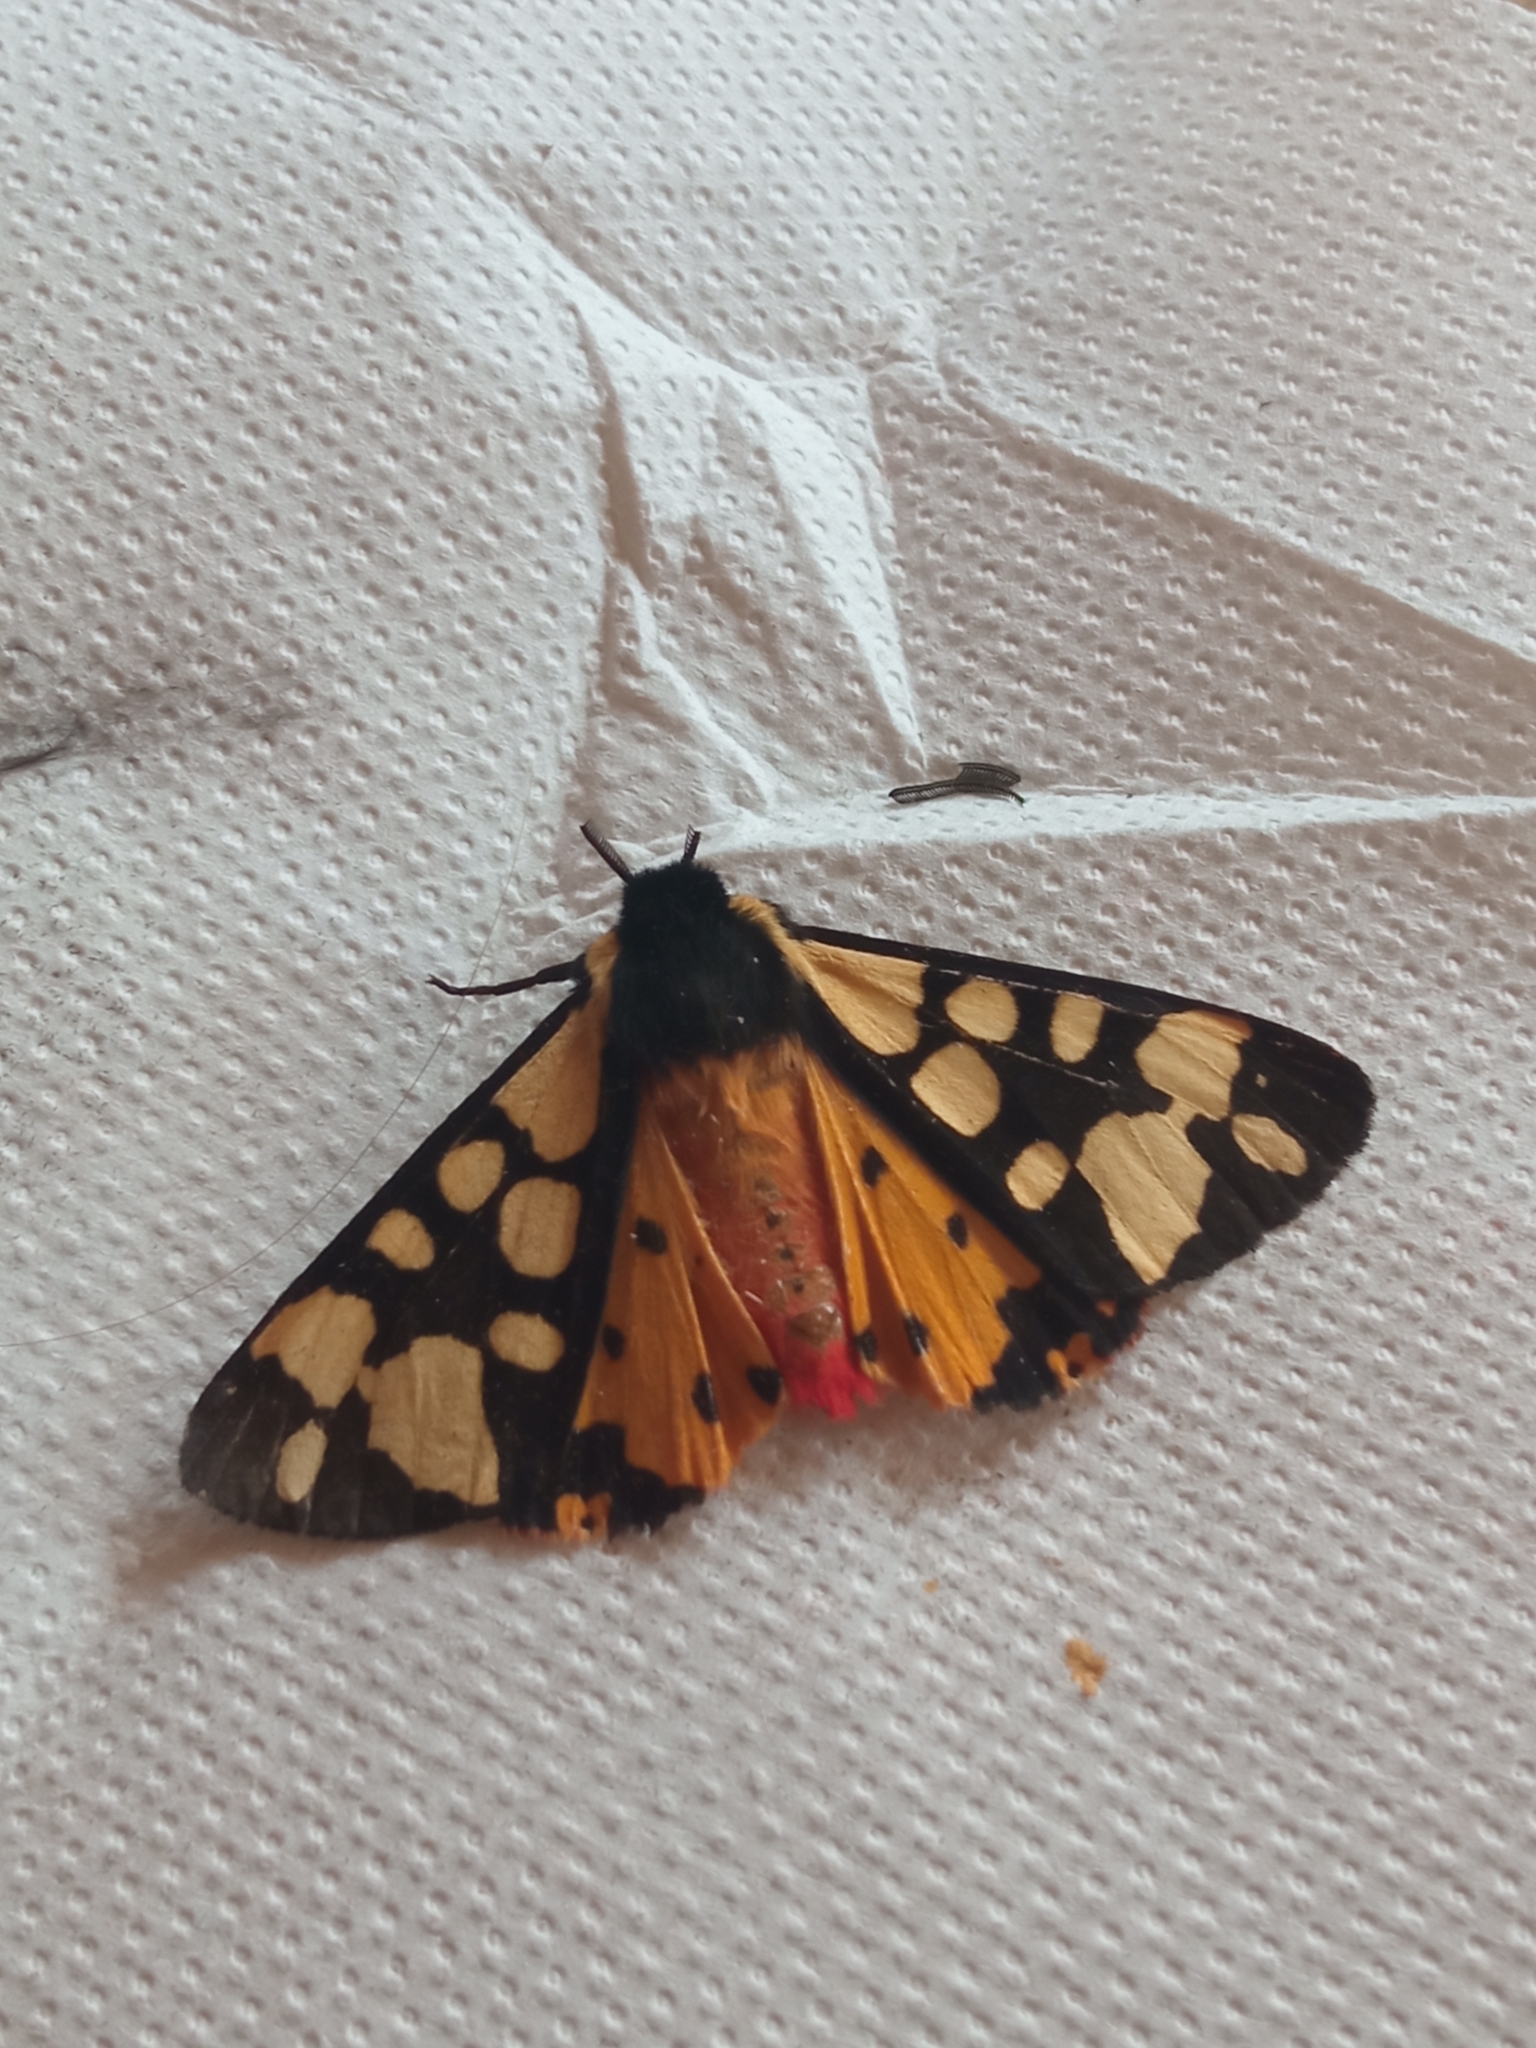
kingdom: Animalia
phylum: Arthropoda
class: Insecta
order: Lepidoptera
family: Erebidae
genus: Epicallia
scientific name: Epicallia villica
